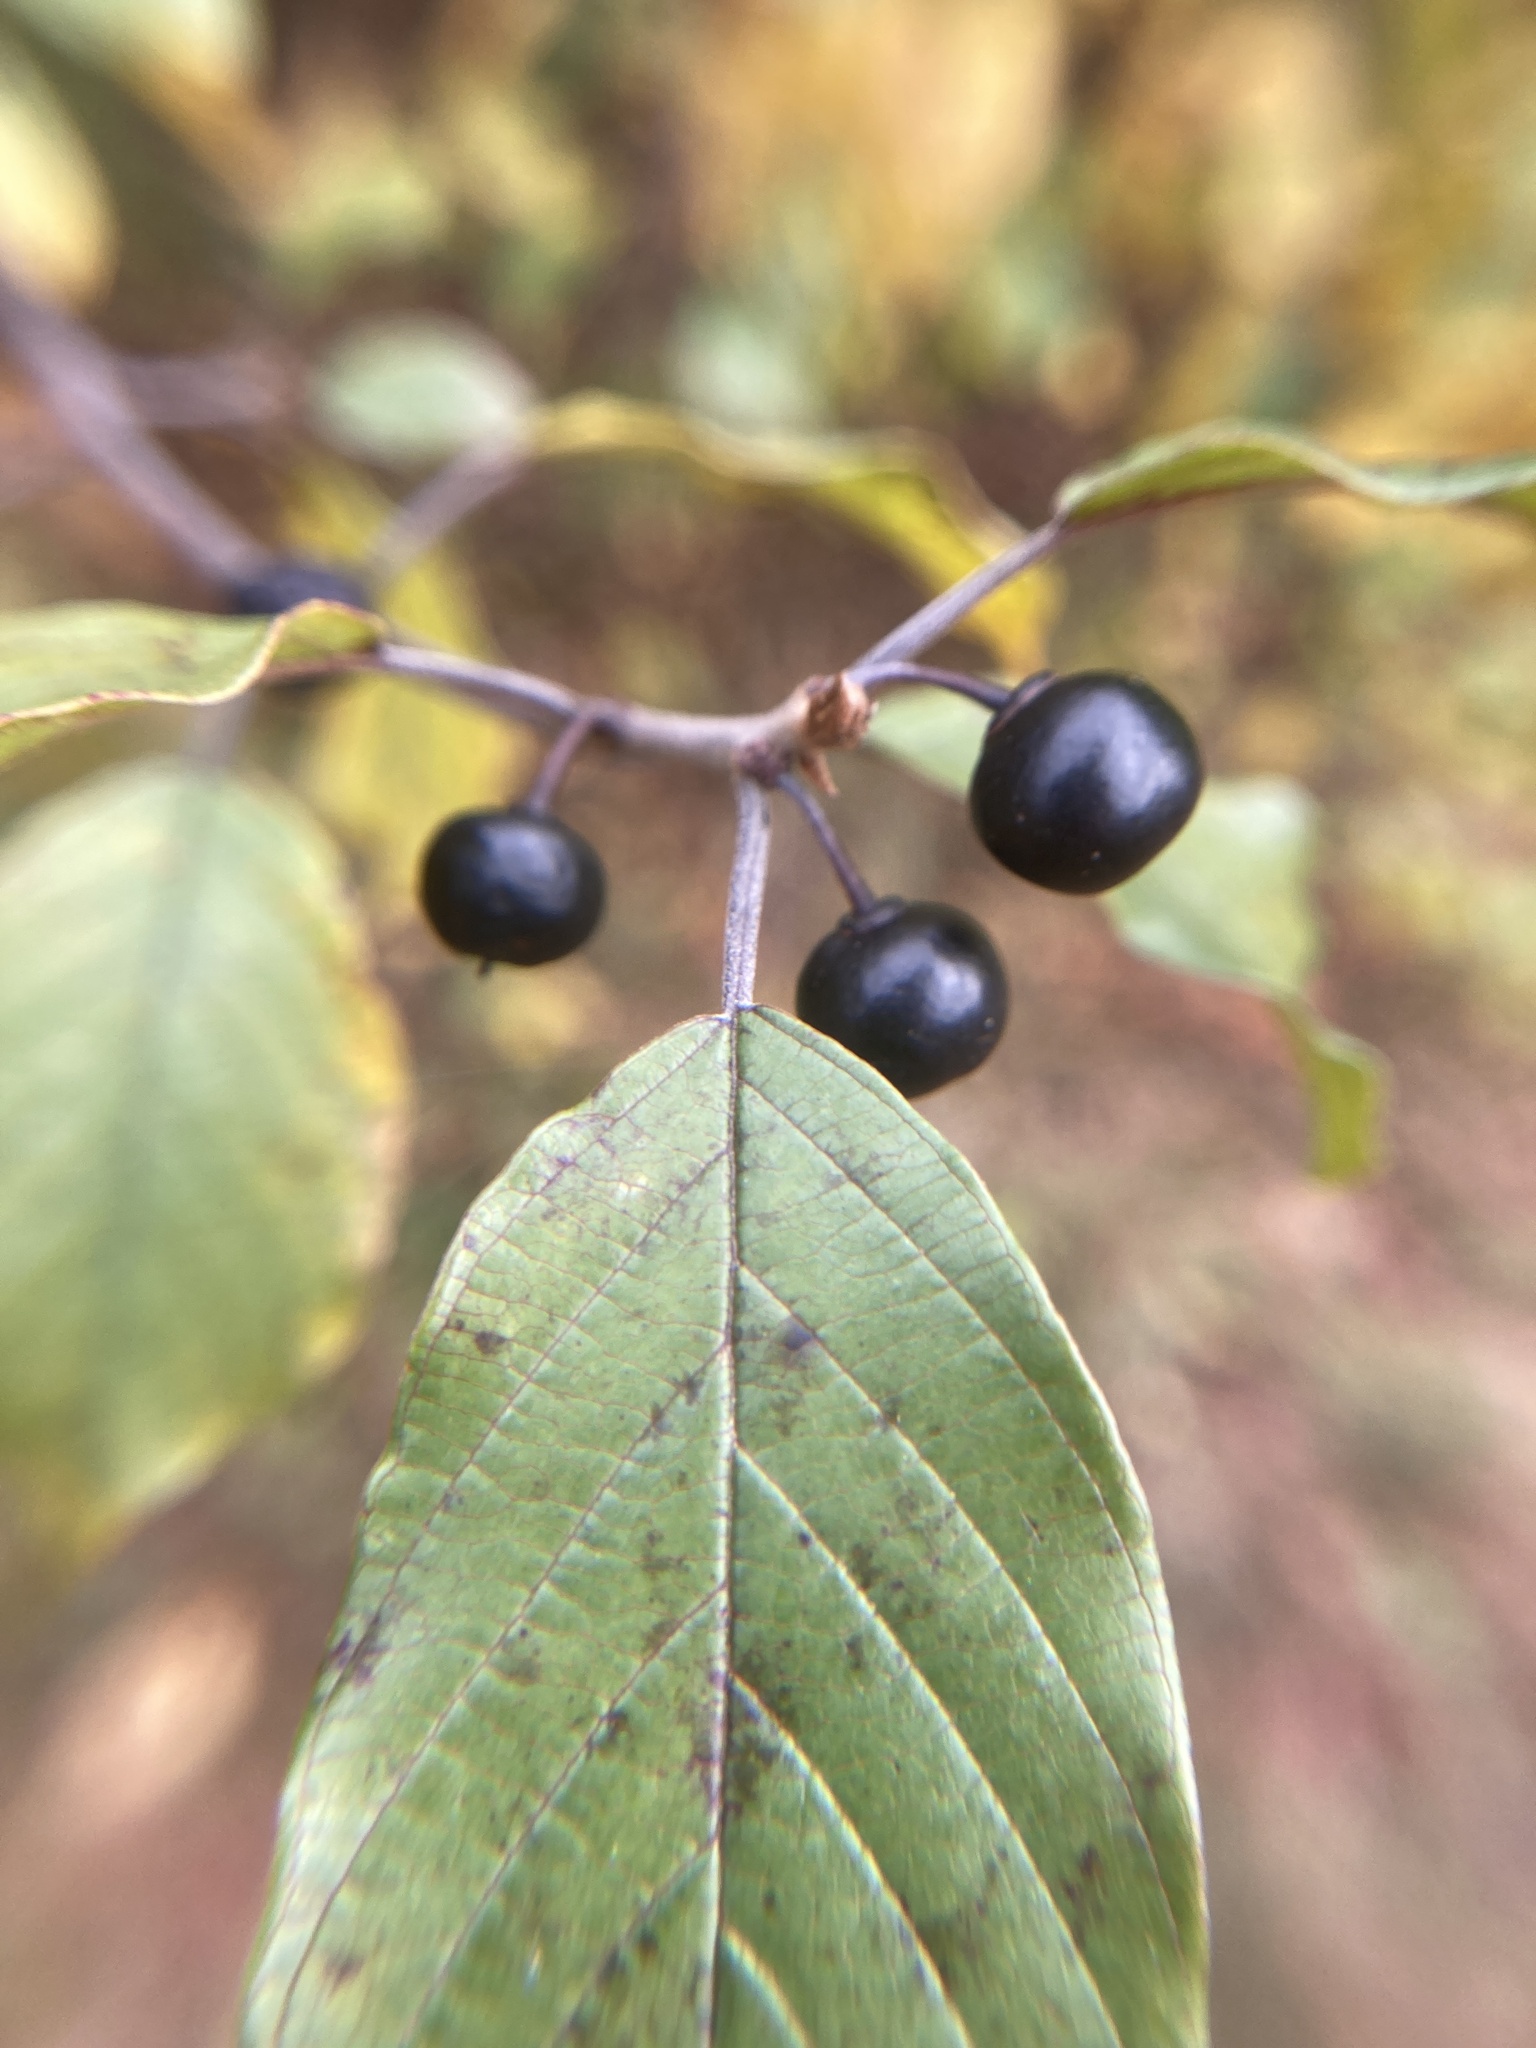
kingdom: Plantae
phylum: Tracheophyta
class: Magnoliopsida
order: Rosales
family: Rhamnaceae
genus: Frangula
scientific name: Frangula alnus
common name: Alder buckthorn
